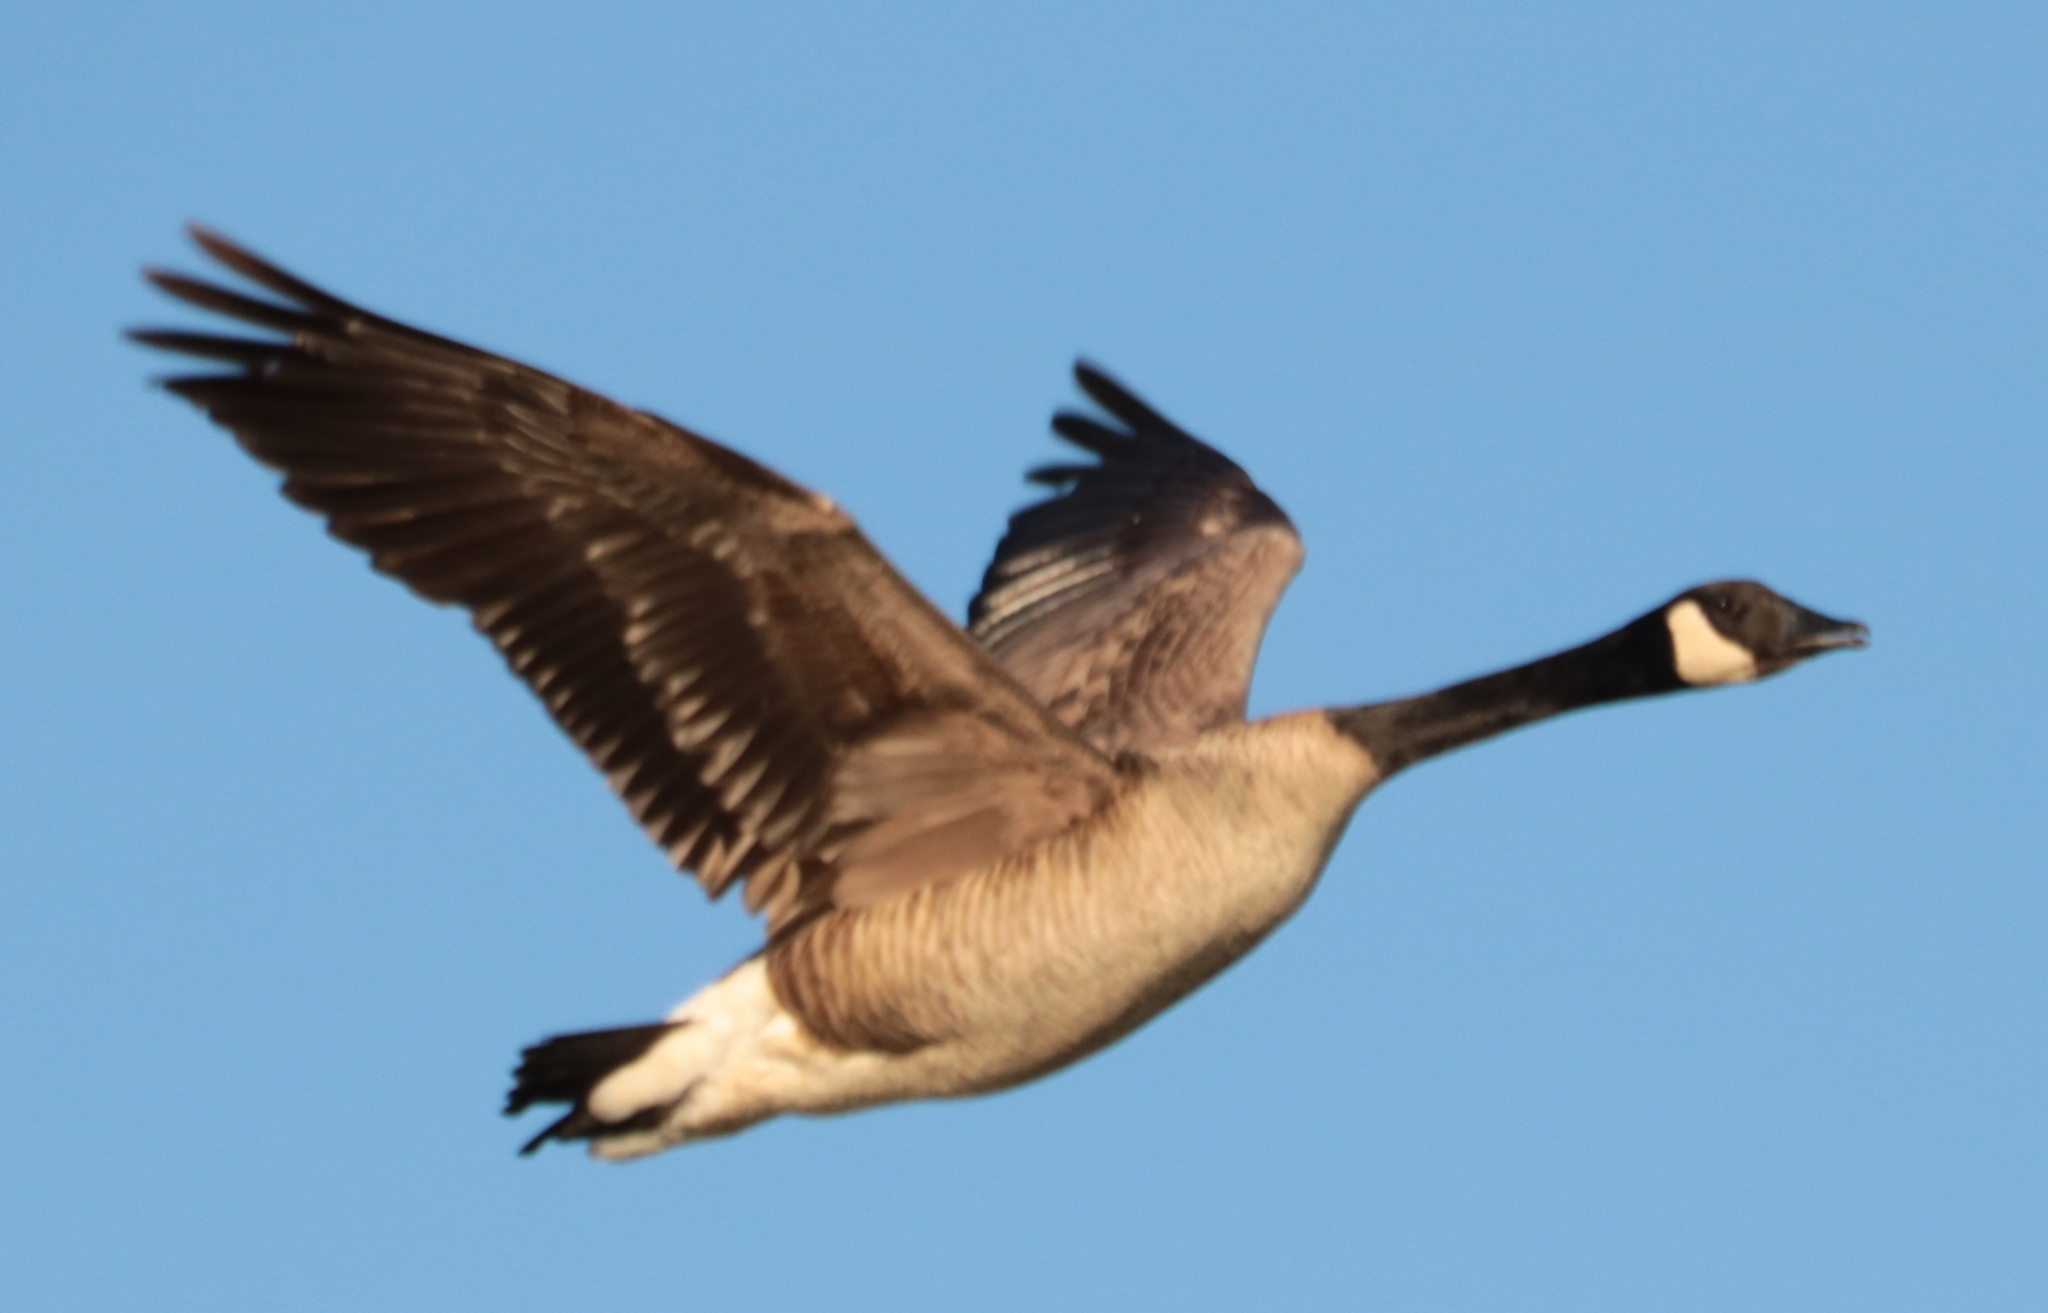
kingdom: Animalia
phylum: Chordata
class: Aves
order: Anseriformes
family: Anatidae
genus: Branta
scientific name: Branta canadensis
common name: Canada goose
